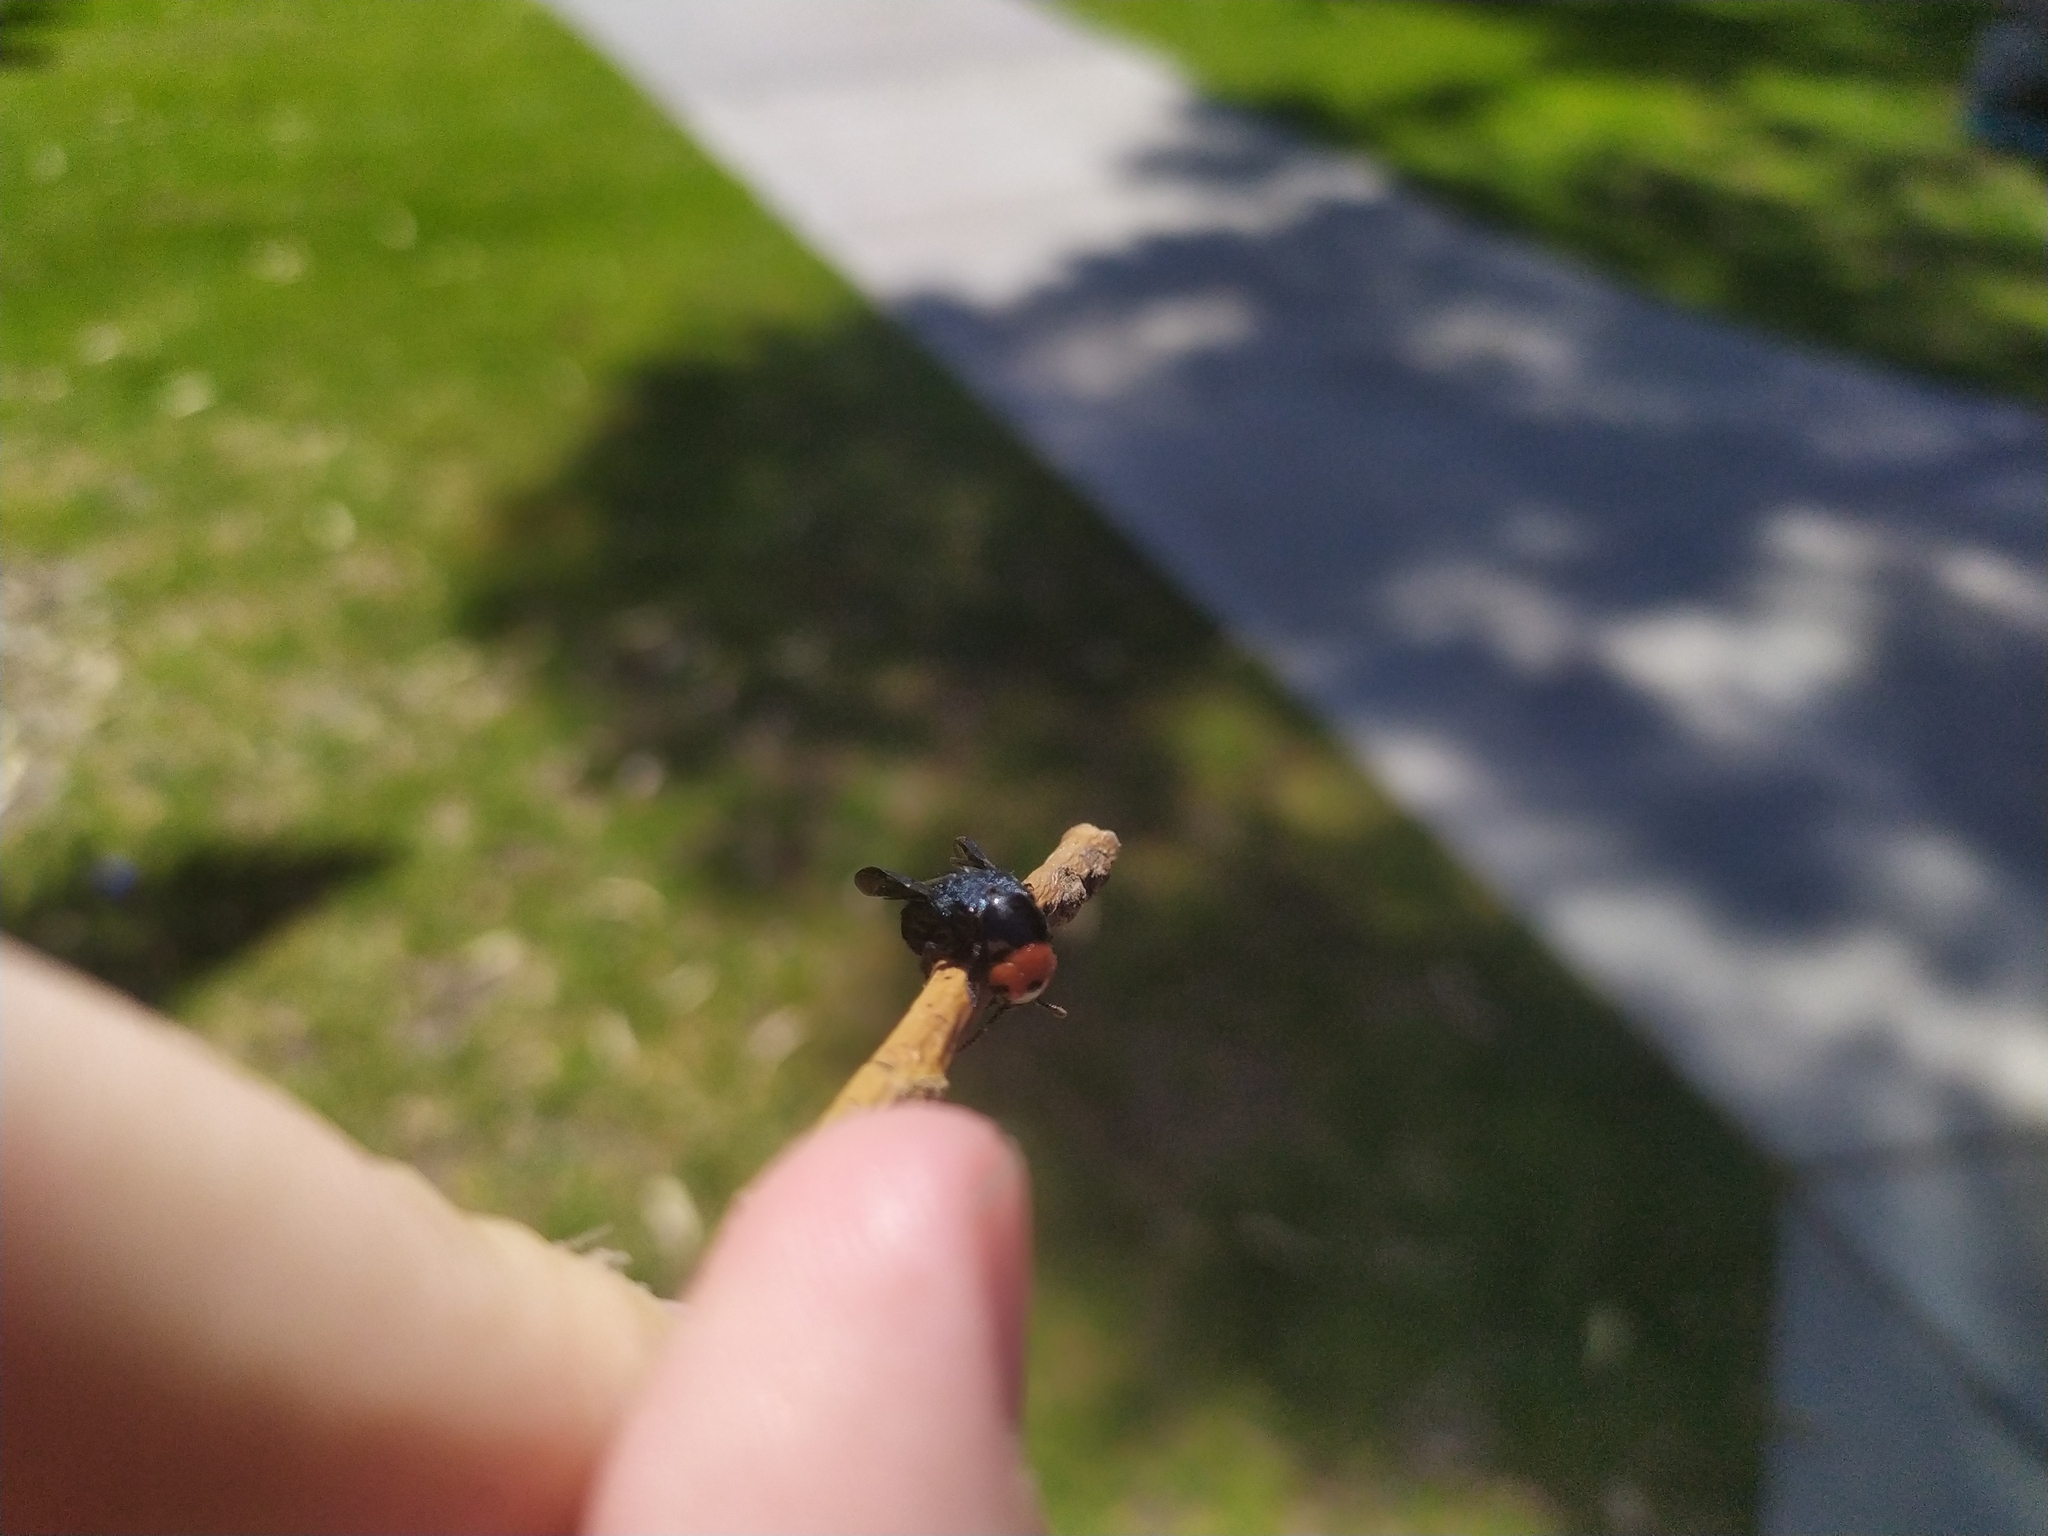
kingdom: Animalia
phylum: Arthropoda
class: Insecta
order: Coleoptera
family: Staphylinidae
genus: Creophilus
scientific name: Creophilus erythrocephalus
